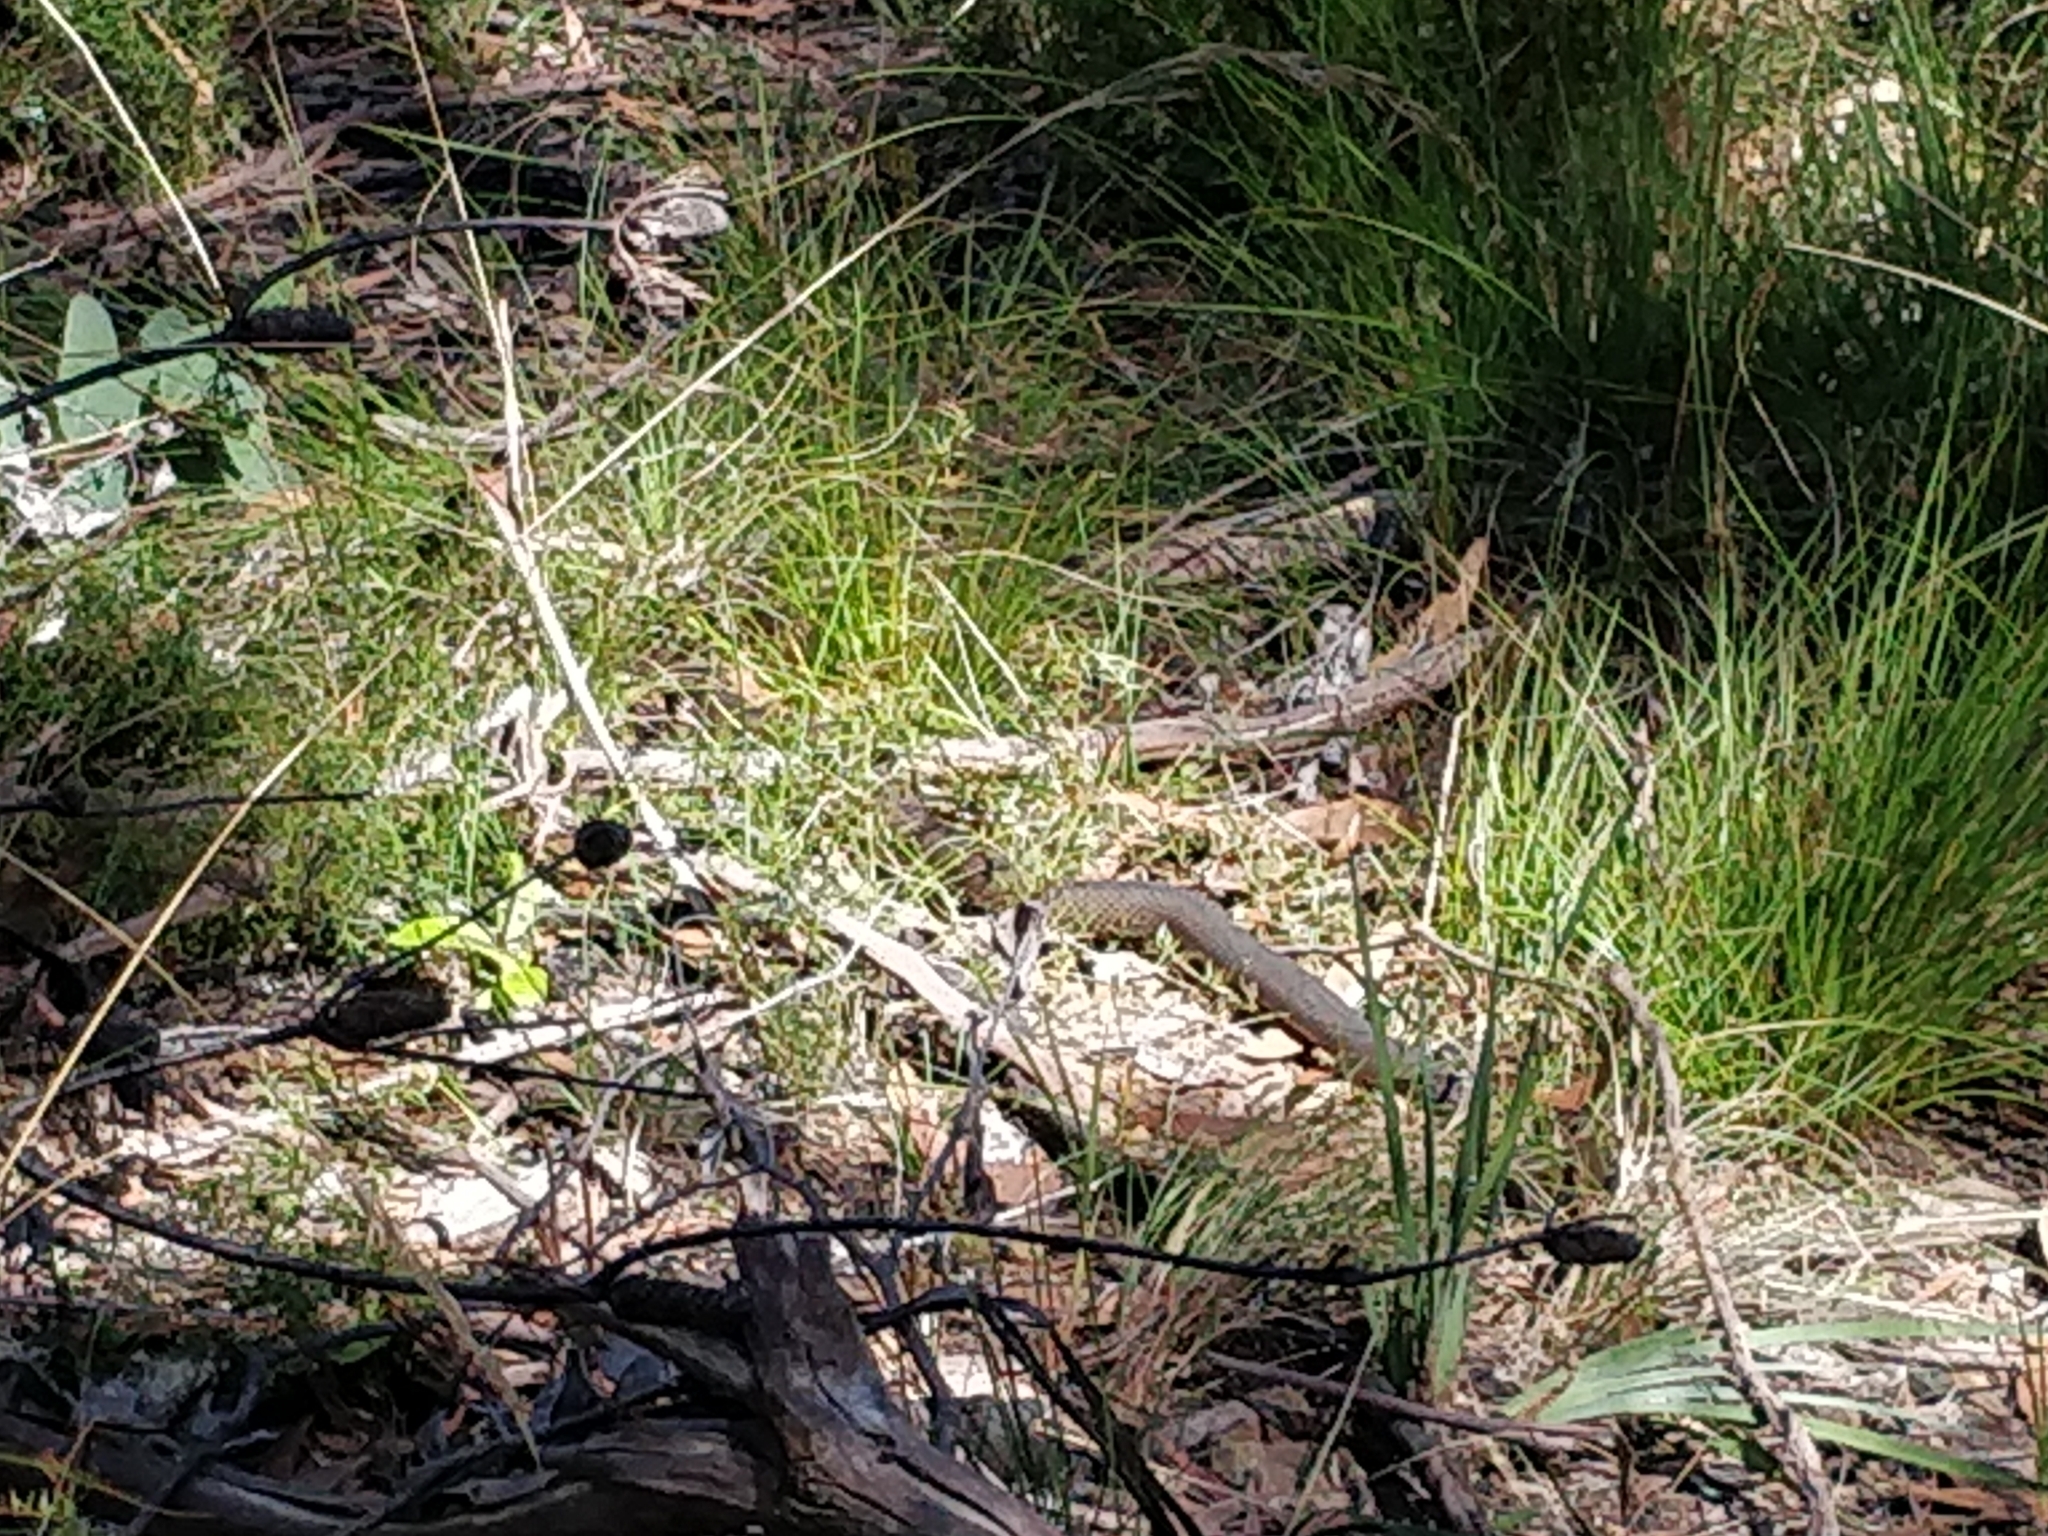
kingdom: Animalia
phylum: Chordata
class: Squamata
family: Elapidae
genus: Austrelaps
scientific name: Austrelaps ramsayi
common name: Highlands copperhead
